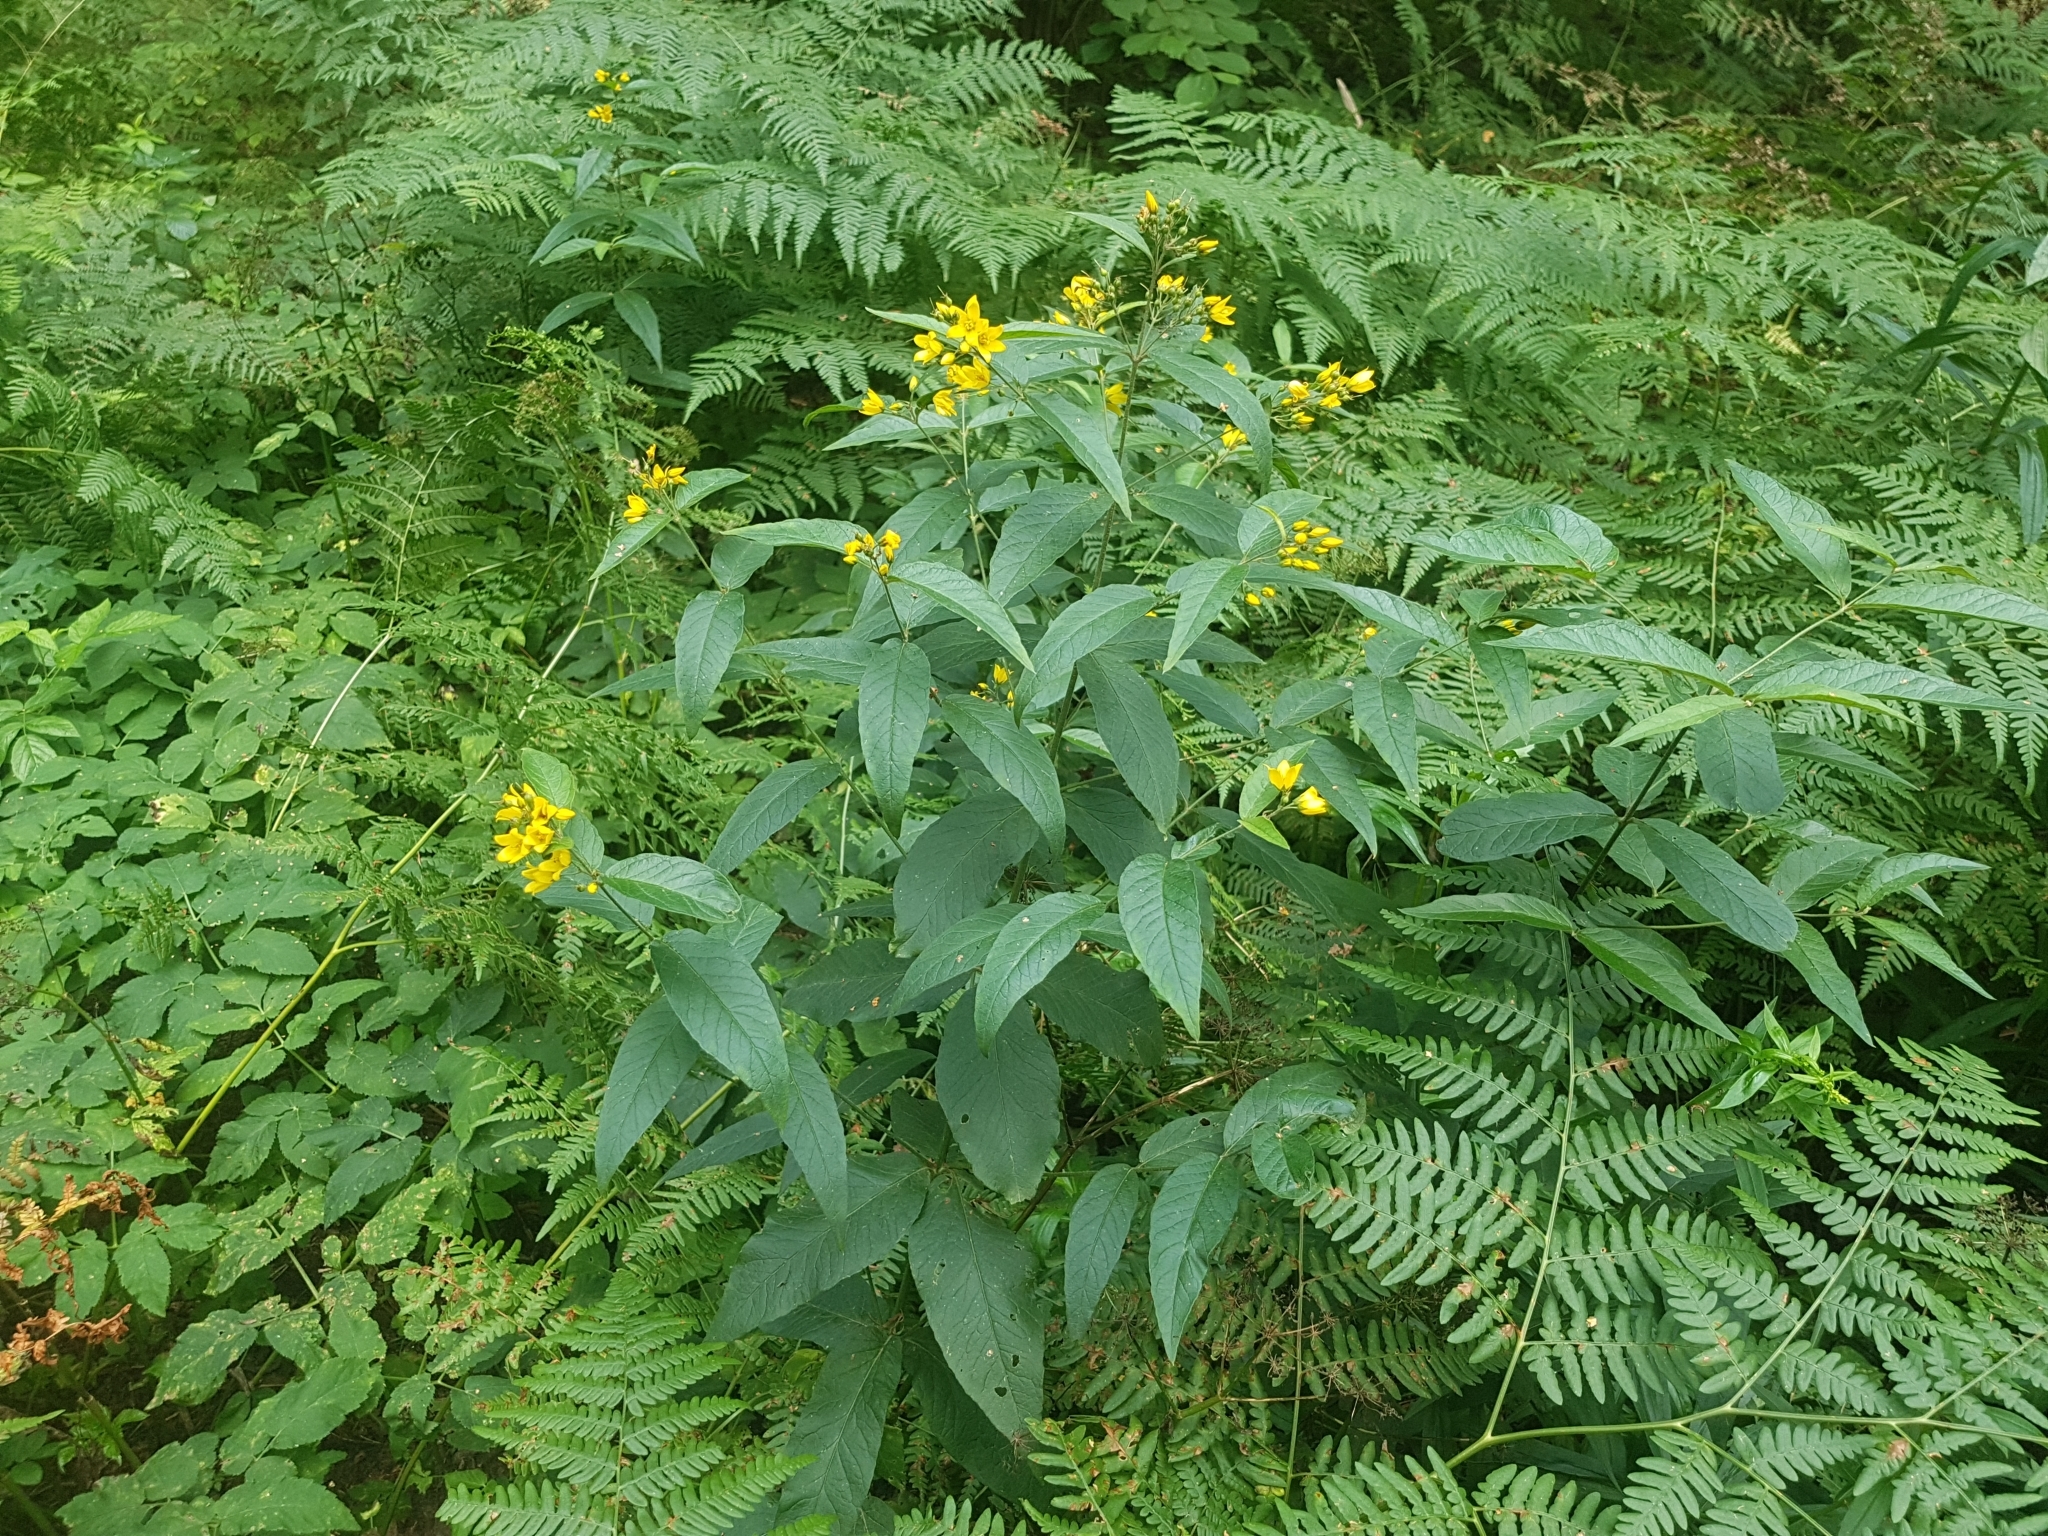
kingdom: Plantae
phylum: Tracheophyta
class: Magnoliopsida
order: Ericales
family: Primulaceae
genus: Lysimachia
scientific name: Lysimachia vulgaris
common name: Yellow loosestrife
